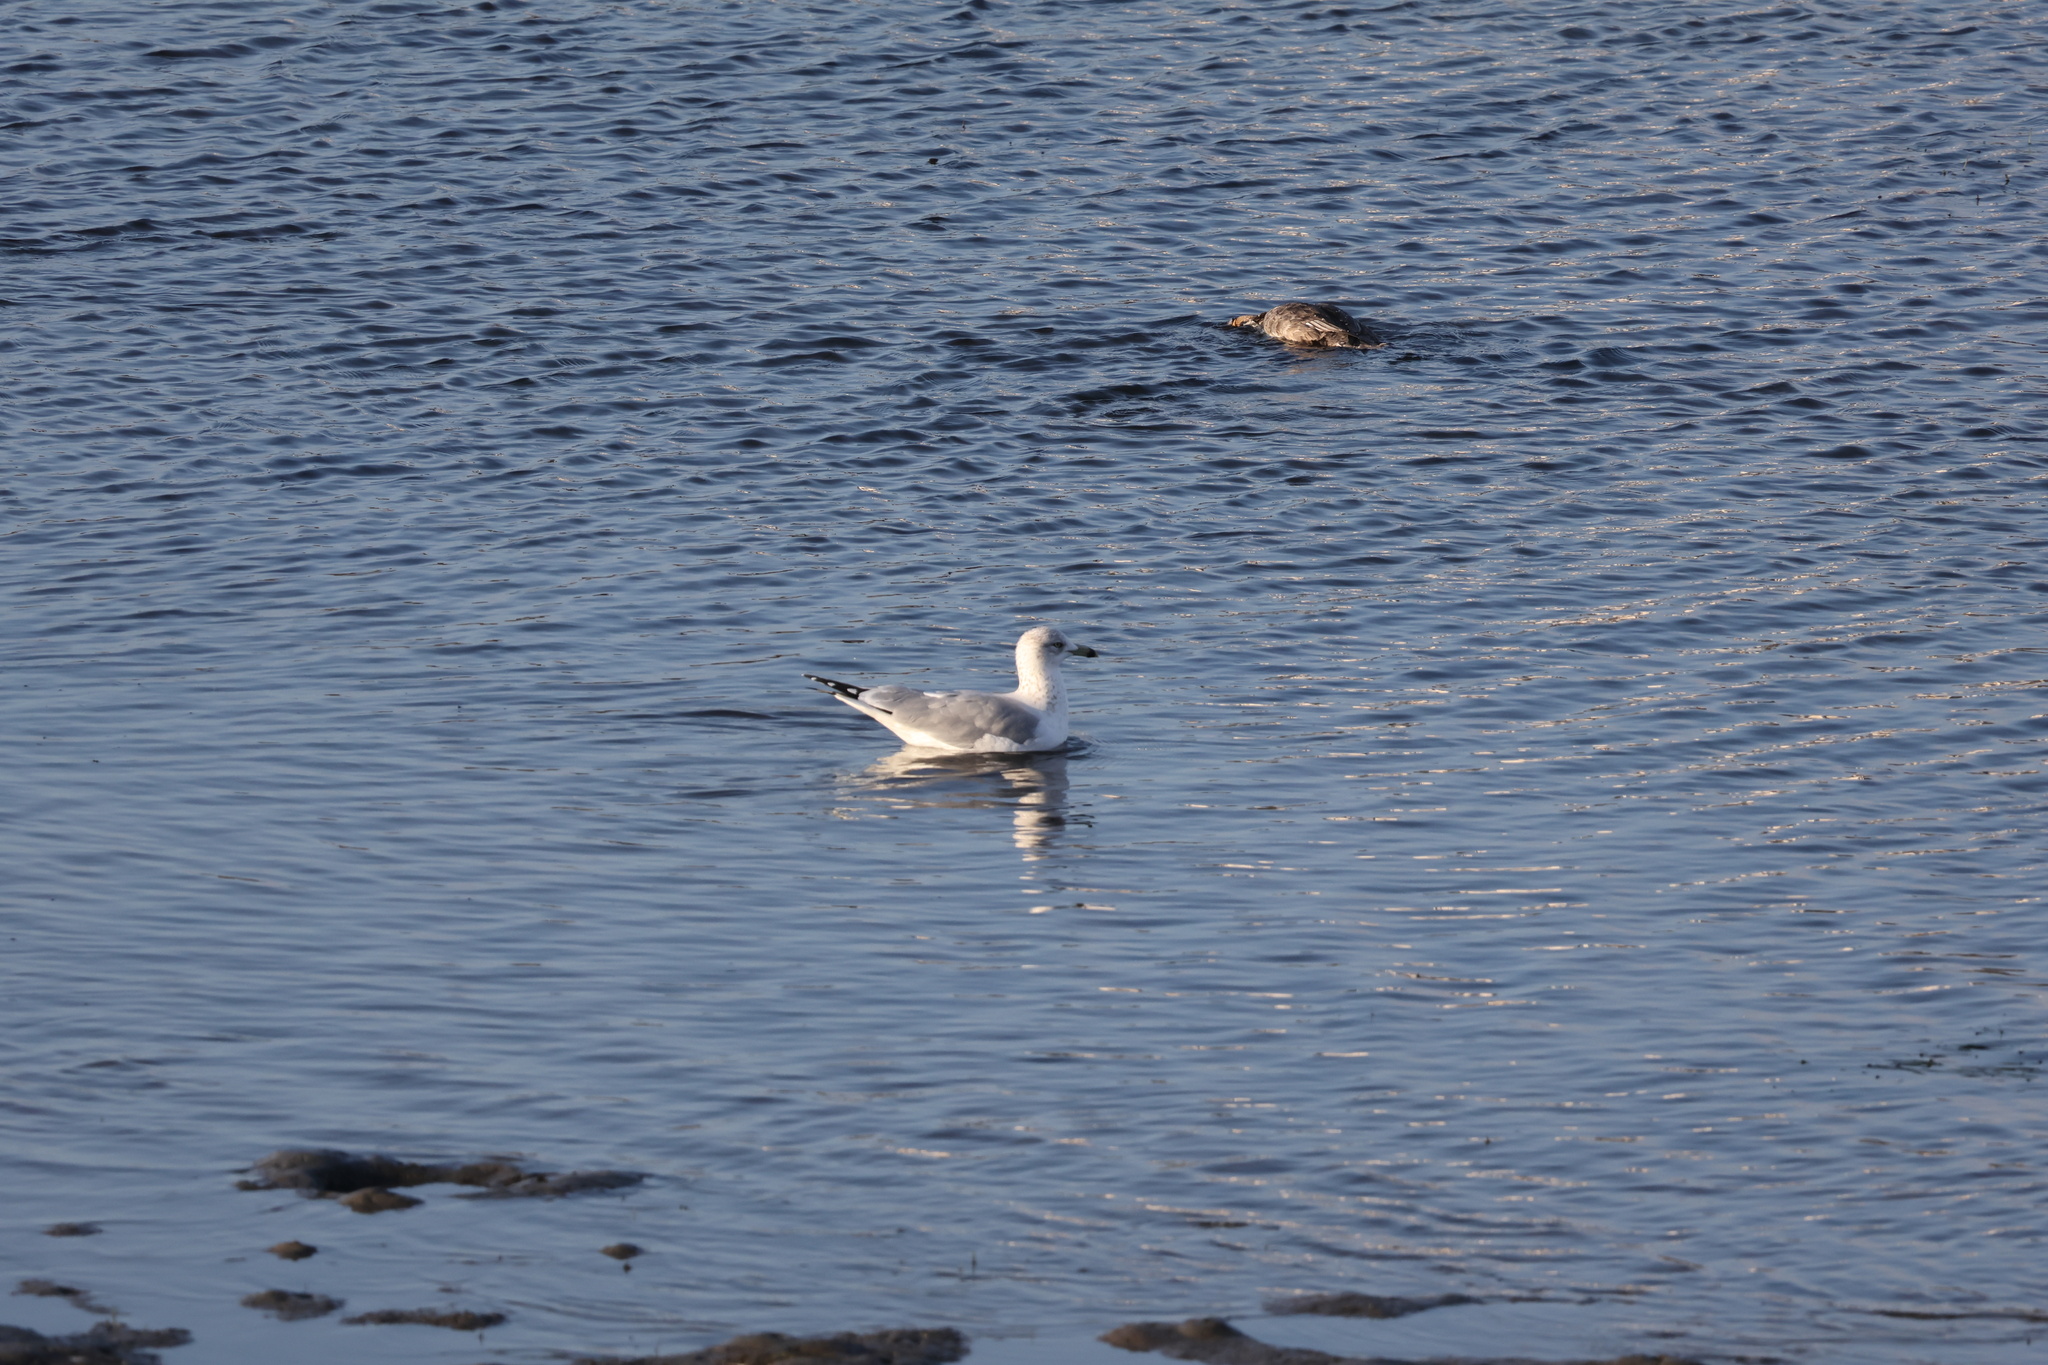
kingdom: Animalia
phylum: Chordata
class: Aves
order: Charadriiformes
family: Laridae
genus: Larus
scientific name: Larus delawarensis
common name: Ring-billed gull
